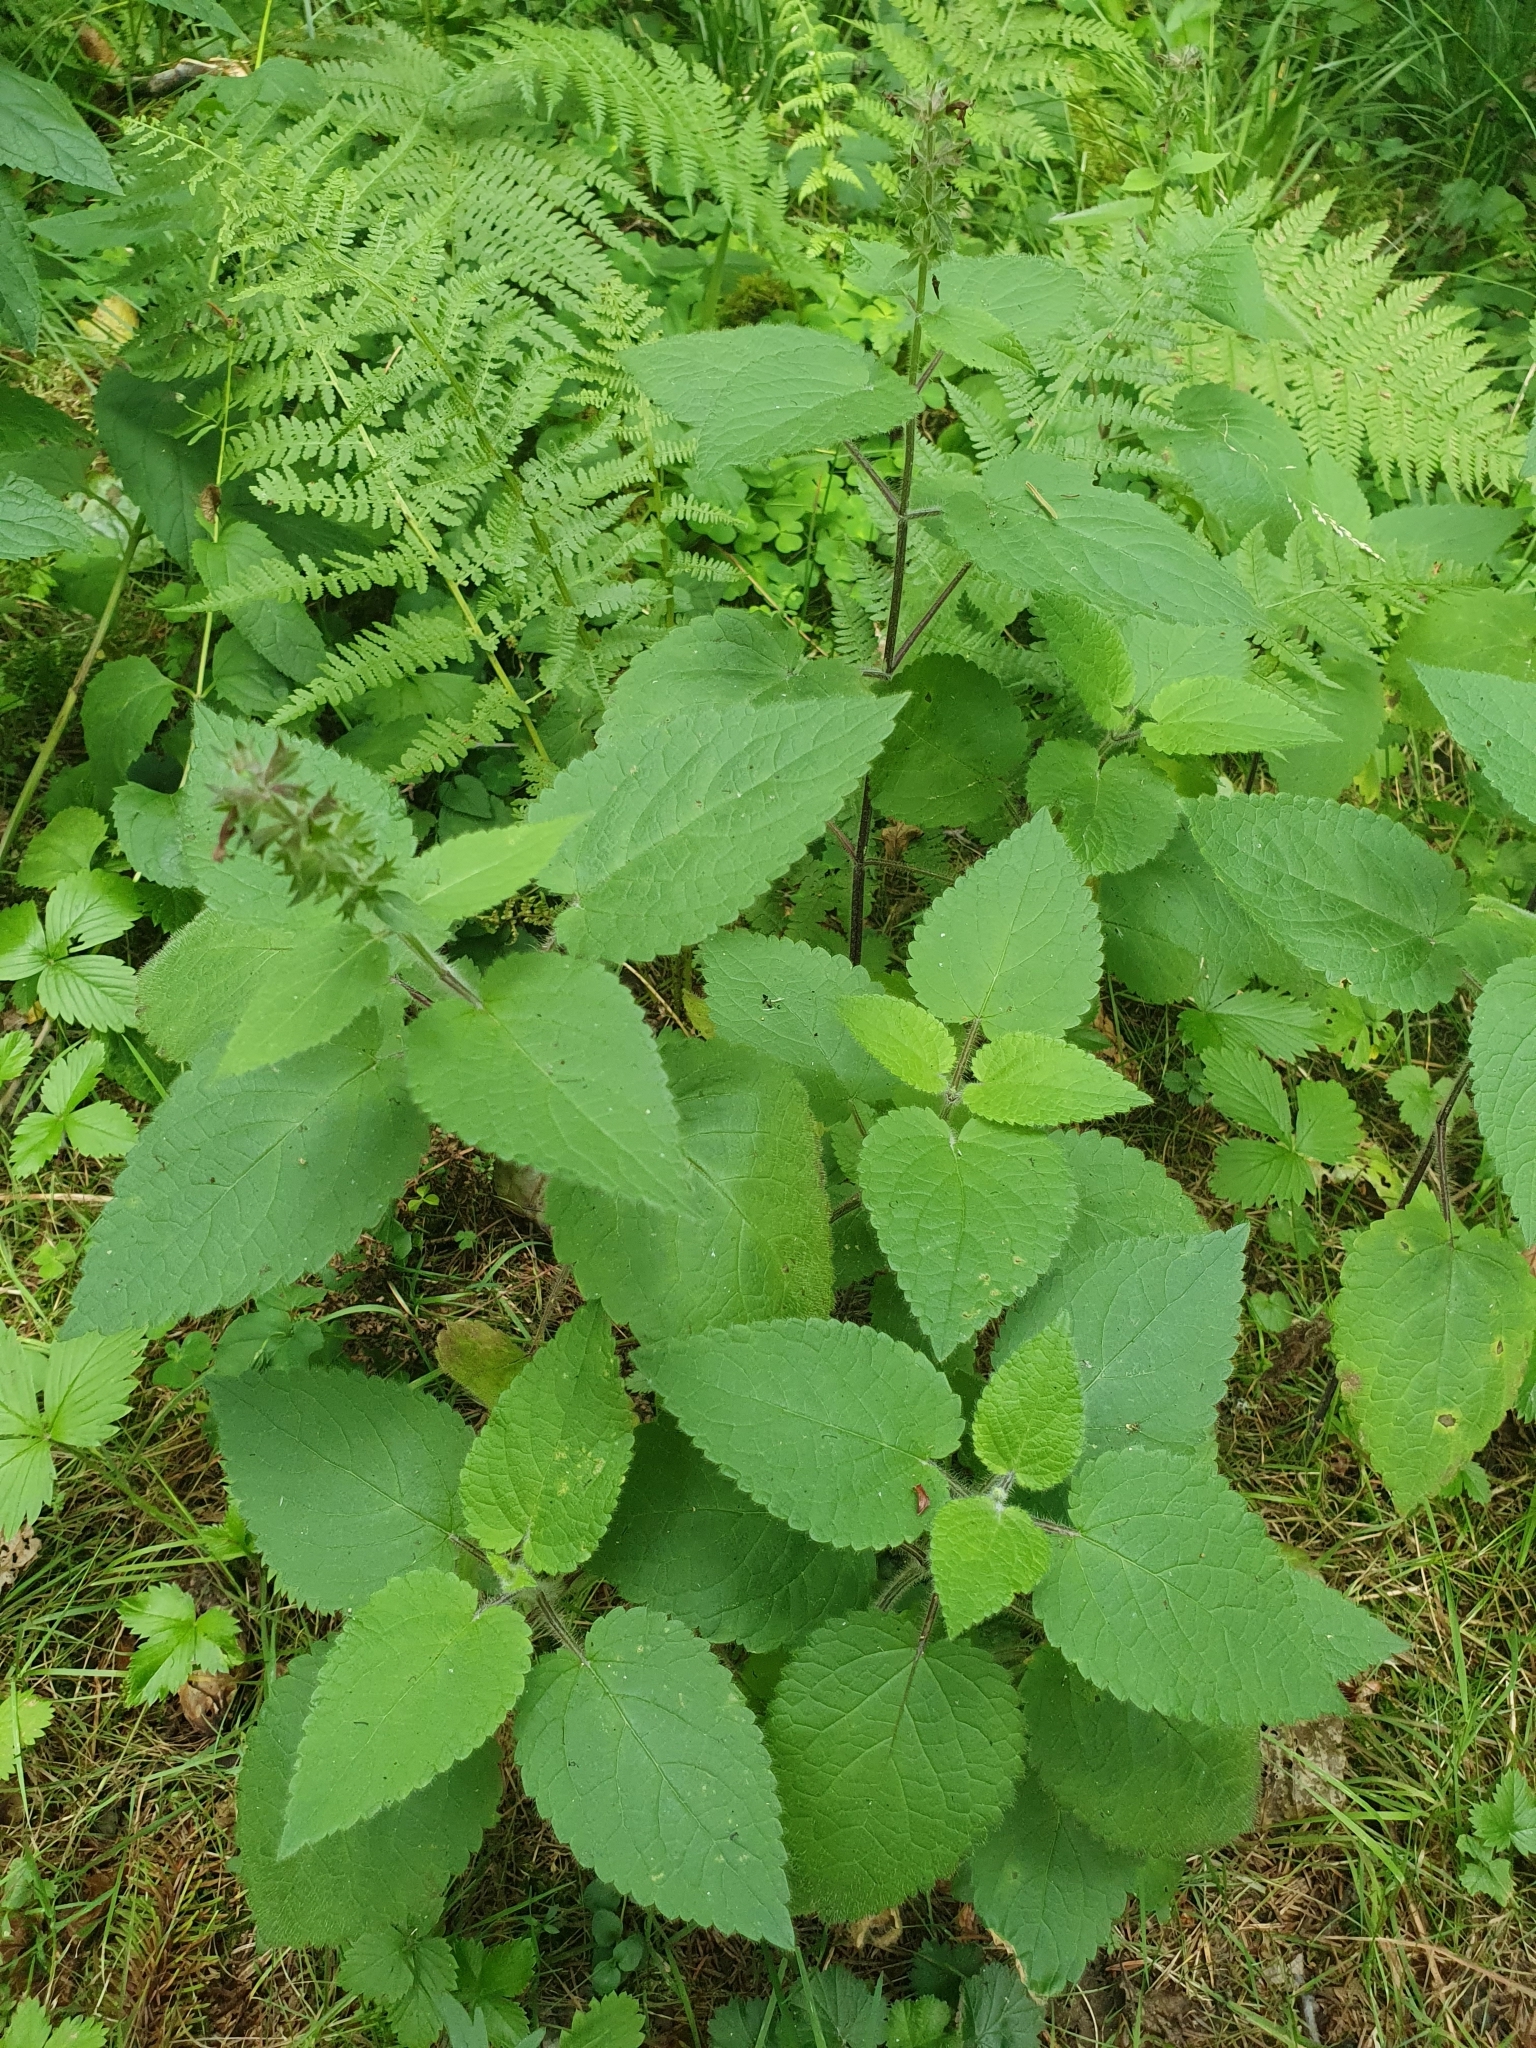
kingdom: Plantae
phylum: Tracheophyta
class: Magnoliopsida
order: Lamiales
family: Lamiaceae
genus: Stachys
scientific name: Stachys sylvatica
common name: Hedge woundwort
